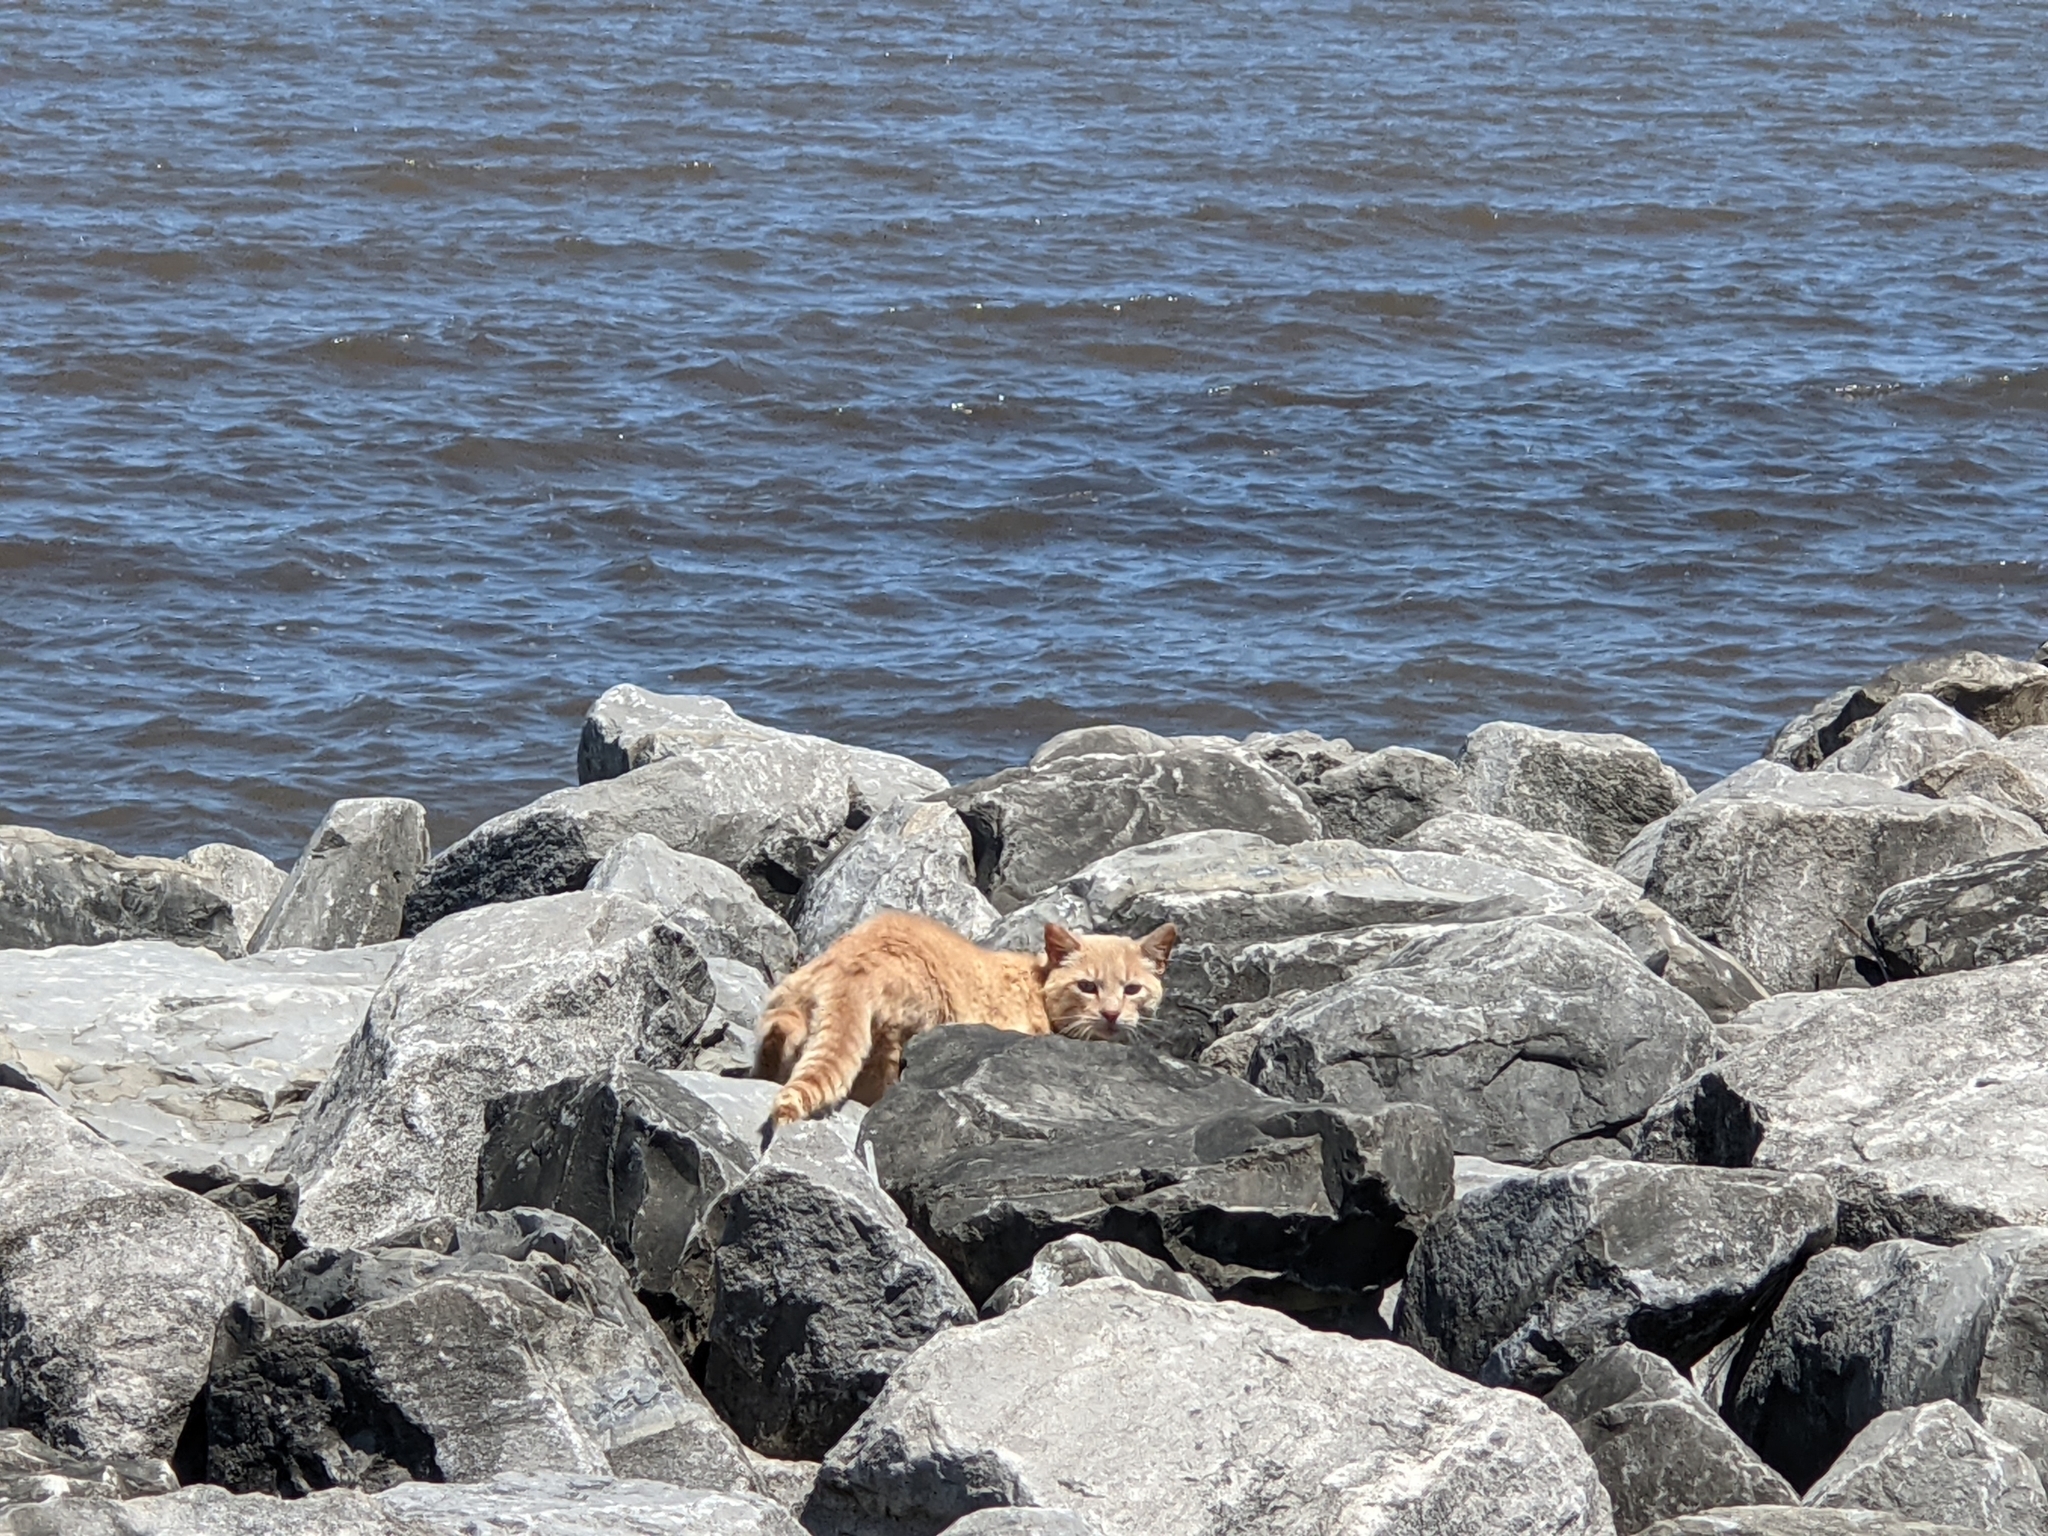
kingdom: Animalia
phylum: Chordata
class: Mammalia
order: Carnivora
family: Felidae
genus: Felis
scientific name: Felis catus
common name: Domestic cat
